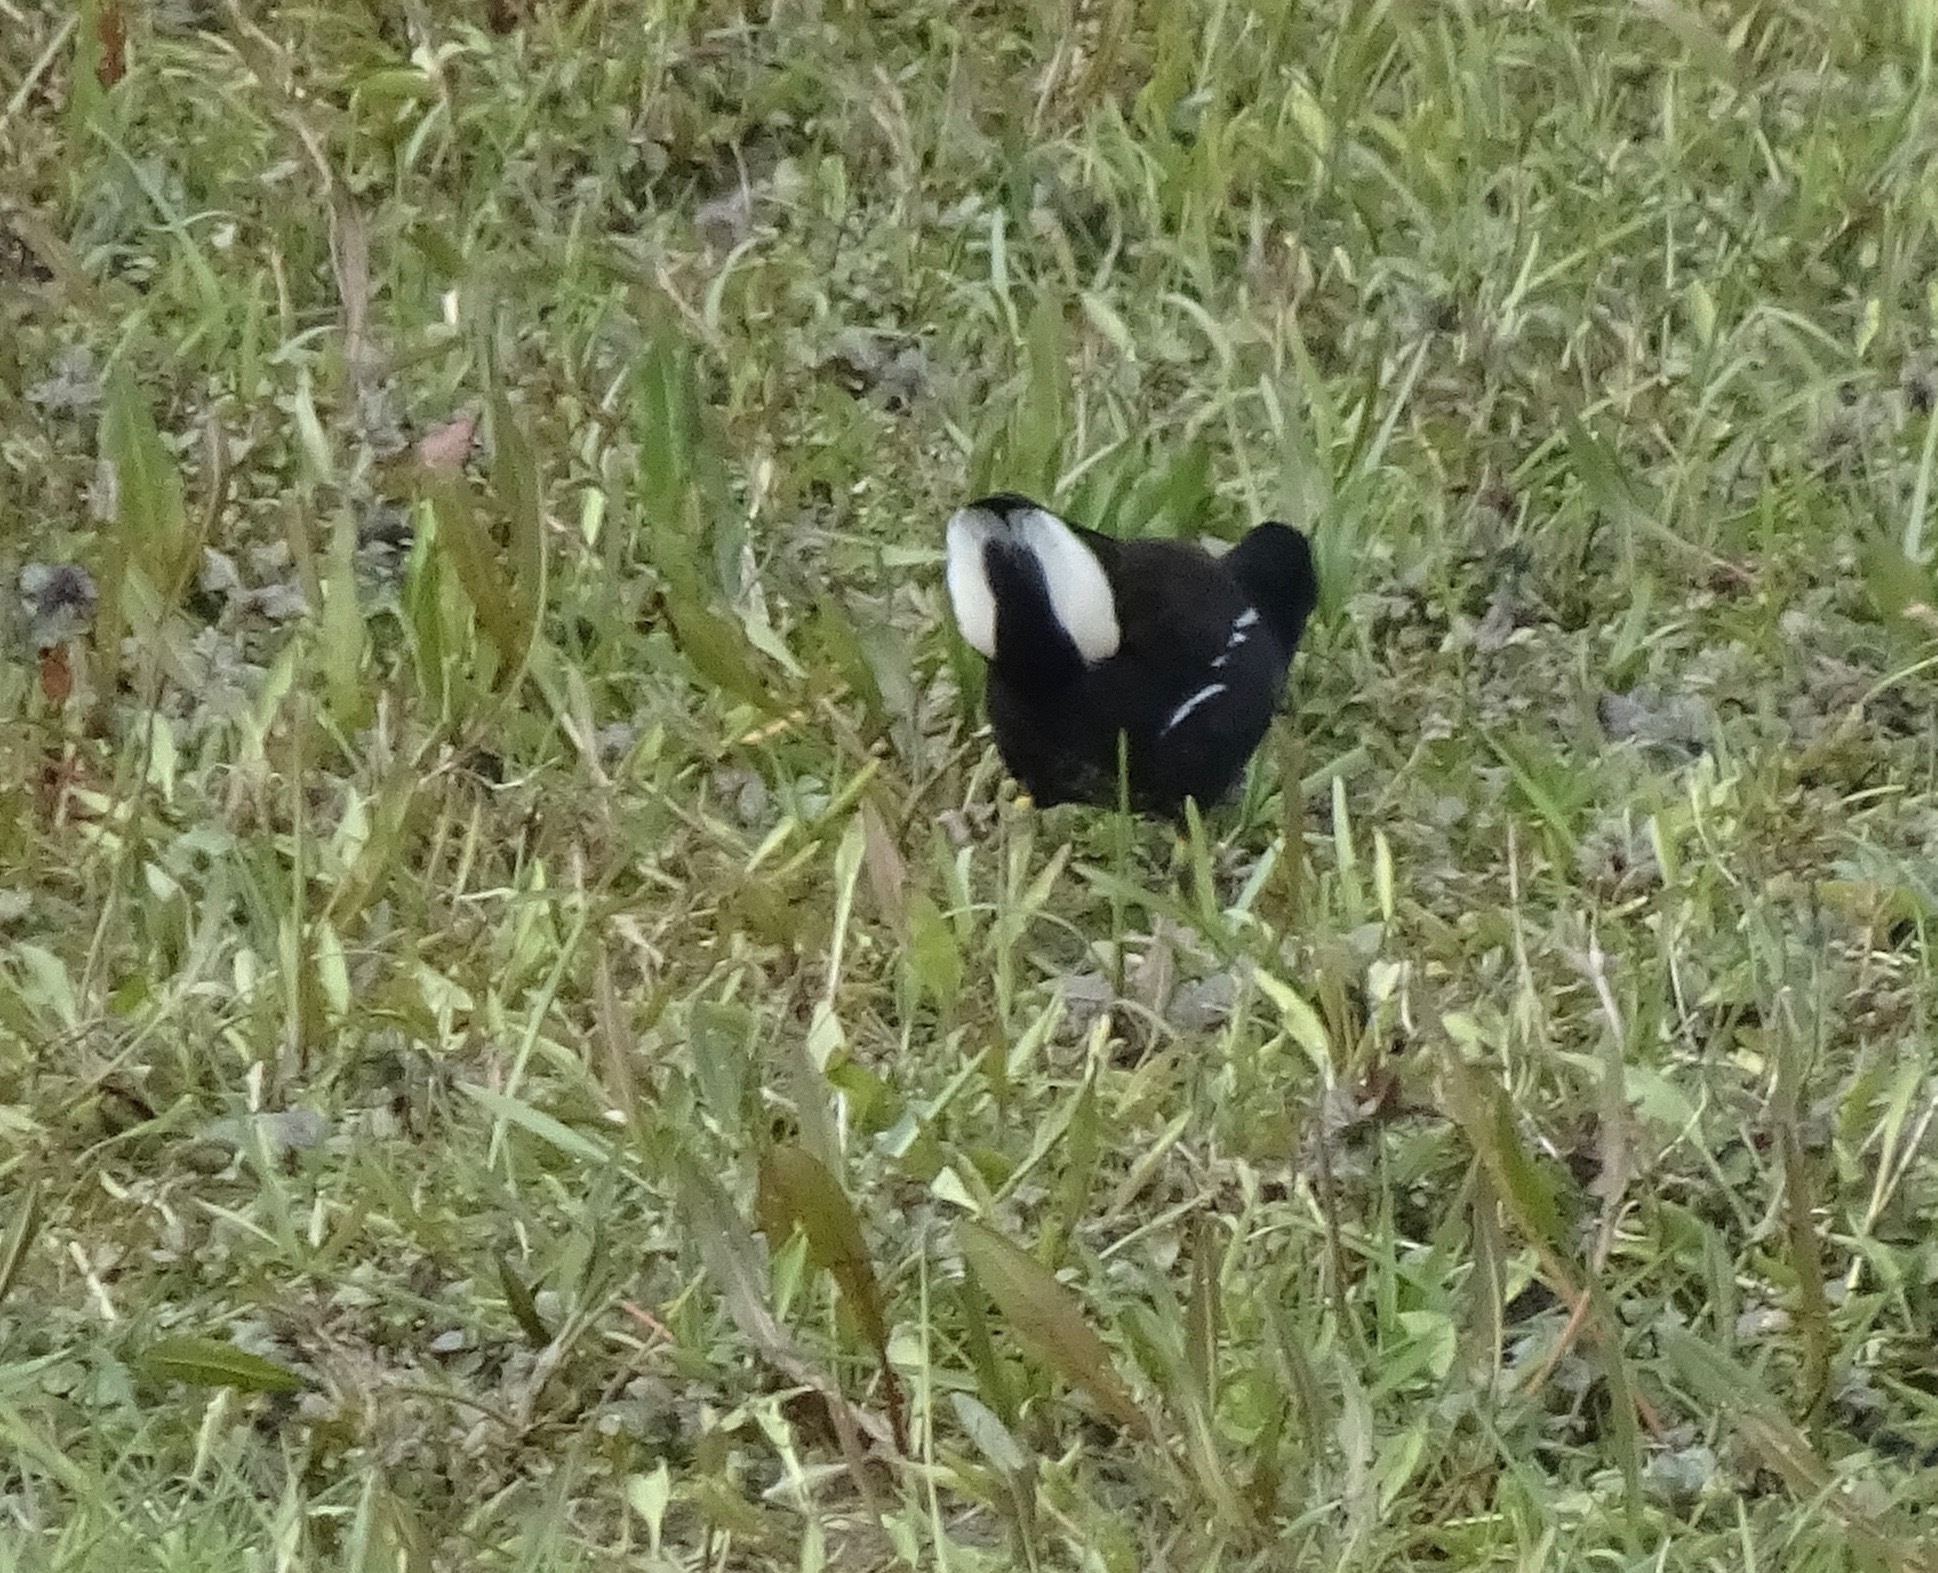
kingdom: Animalia
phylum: Chordata
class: Aves
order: Gruiformes
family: Rallidae
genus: Gallinula
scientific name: Gallinula chloropus
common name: Common moorhen
